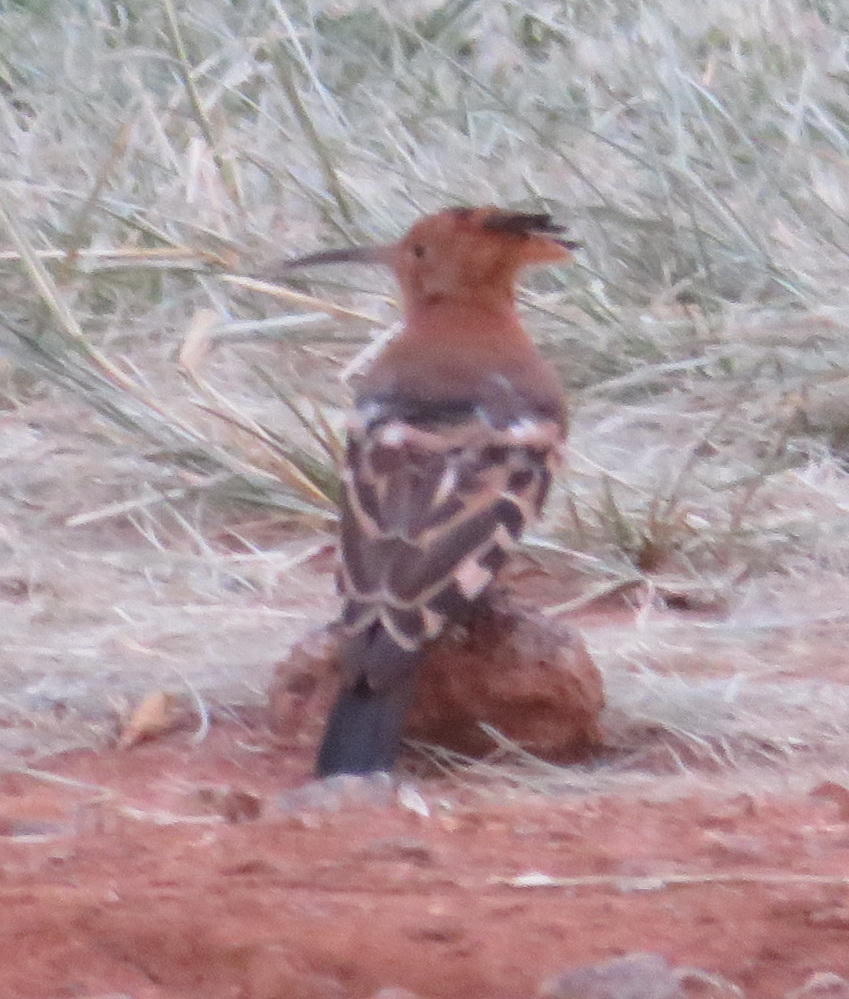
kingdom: Animalia
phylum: Chordata
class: Aves
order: Bucerotiformes
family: Upupidae
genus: Upupa
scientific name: Upupa africana
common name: African hoopoe
